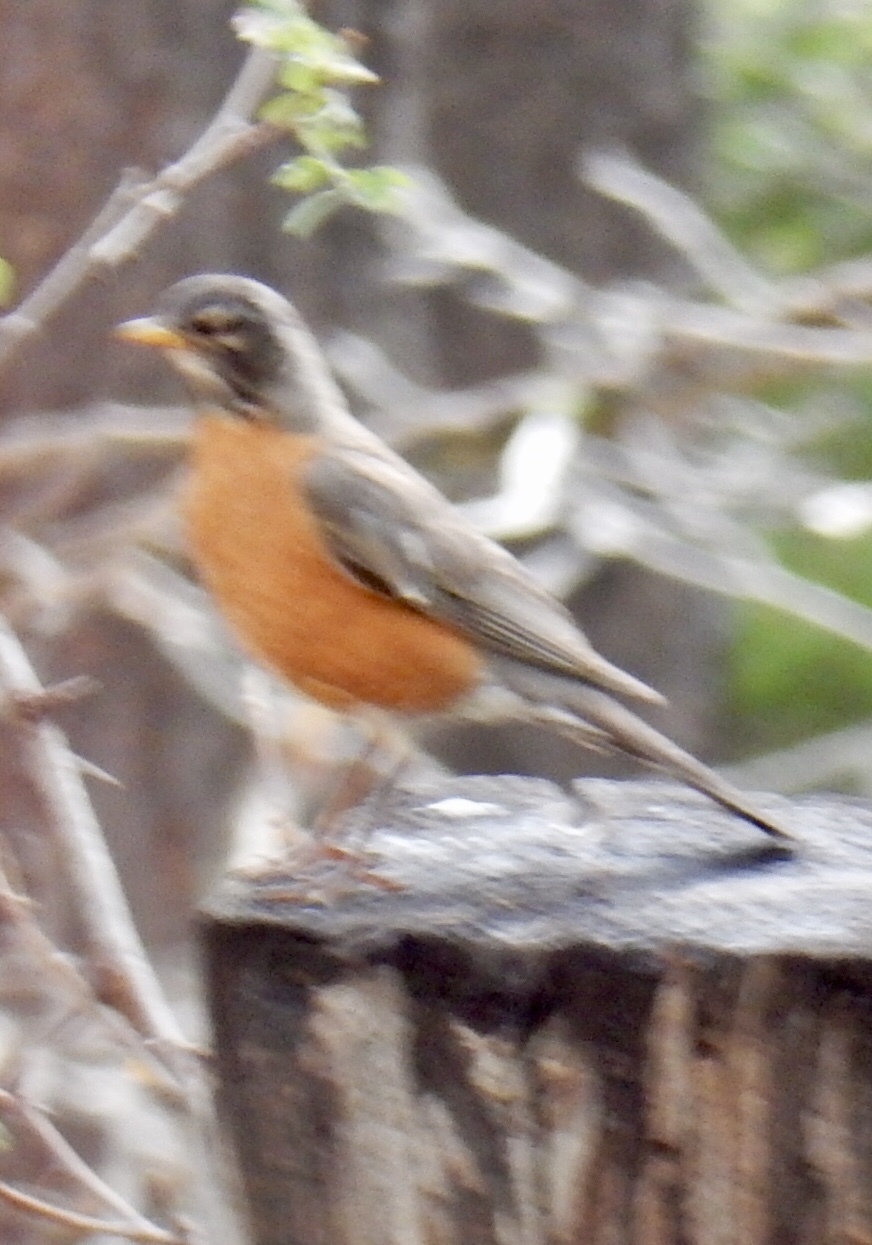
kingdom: Animalia
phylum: Chordata
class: Aves
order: Passeriformes
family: Turdidae
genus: Turdus
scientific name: Turdus migratorius
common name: American robin
